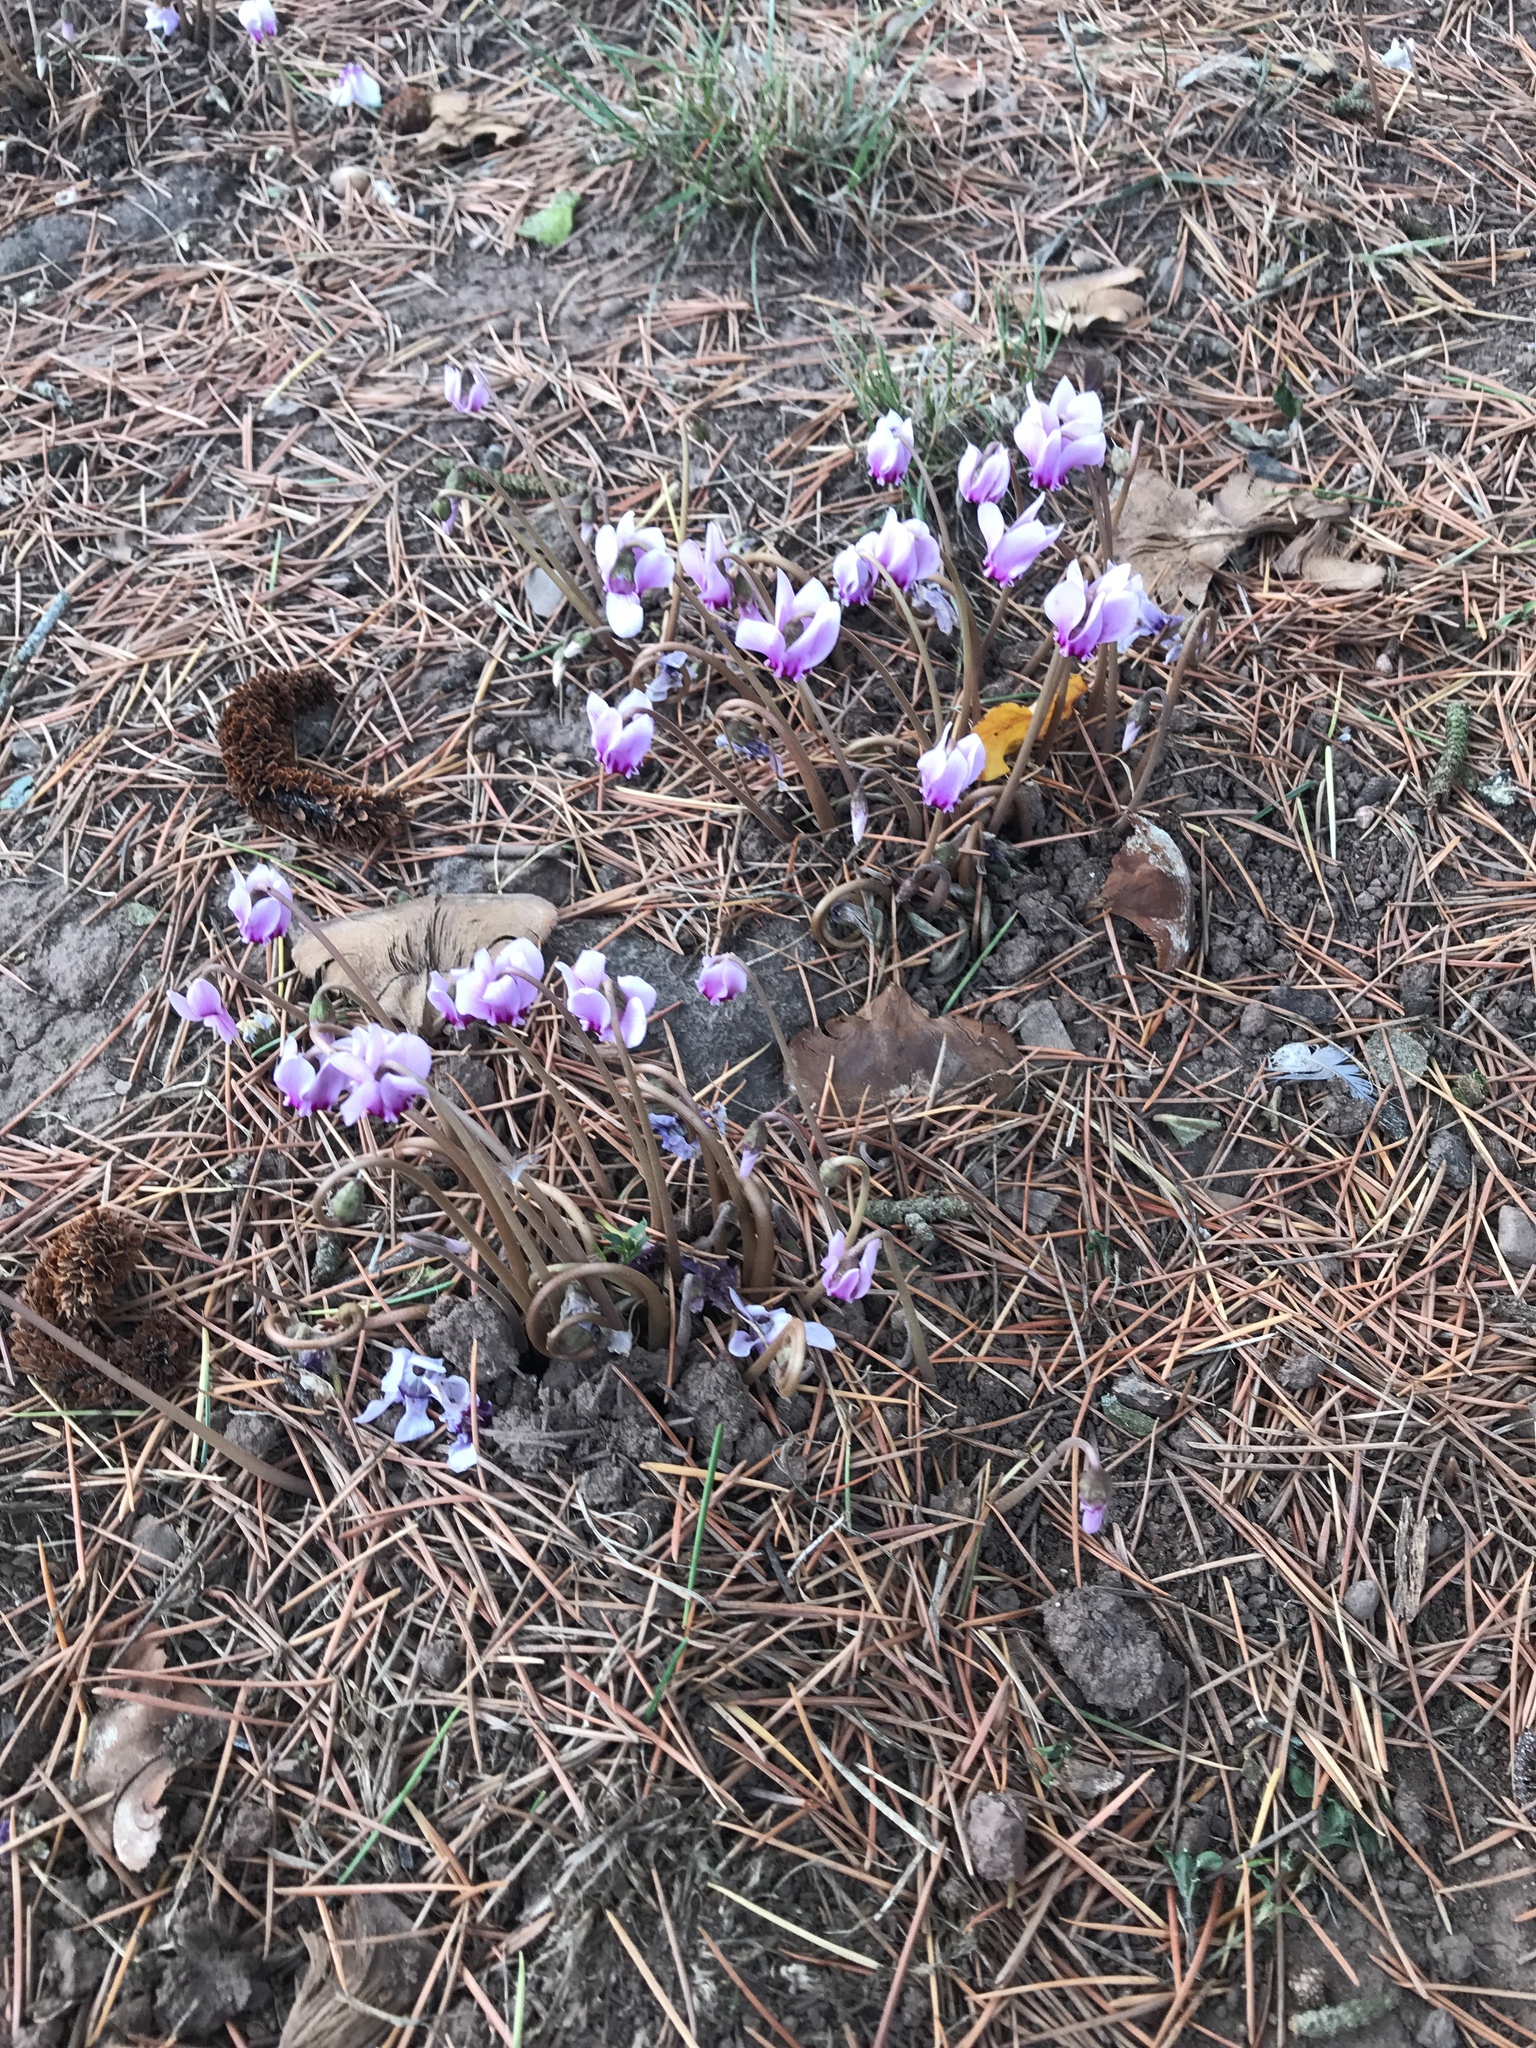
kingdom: Plantae
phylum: Tracheophyta
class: Magnoliopsida
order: Ericales
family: Primulaceae
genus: Cyclamen
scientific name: Cyclamen hederifolium
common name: Sowbread
